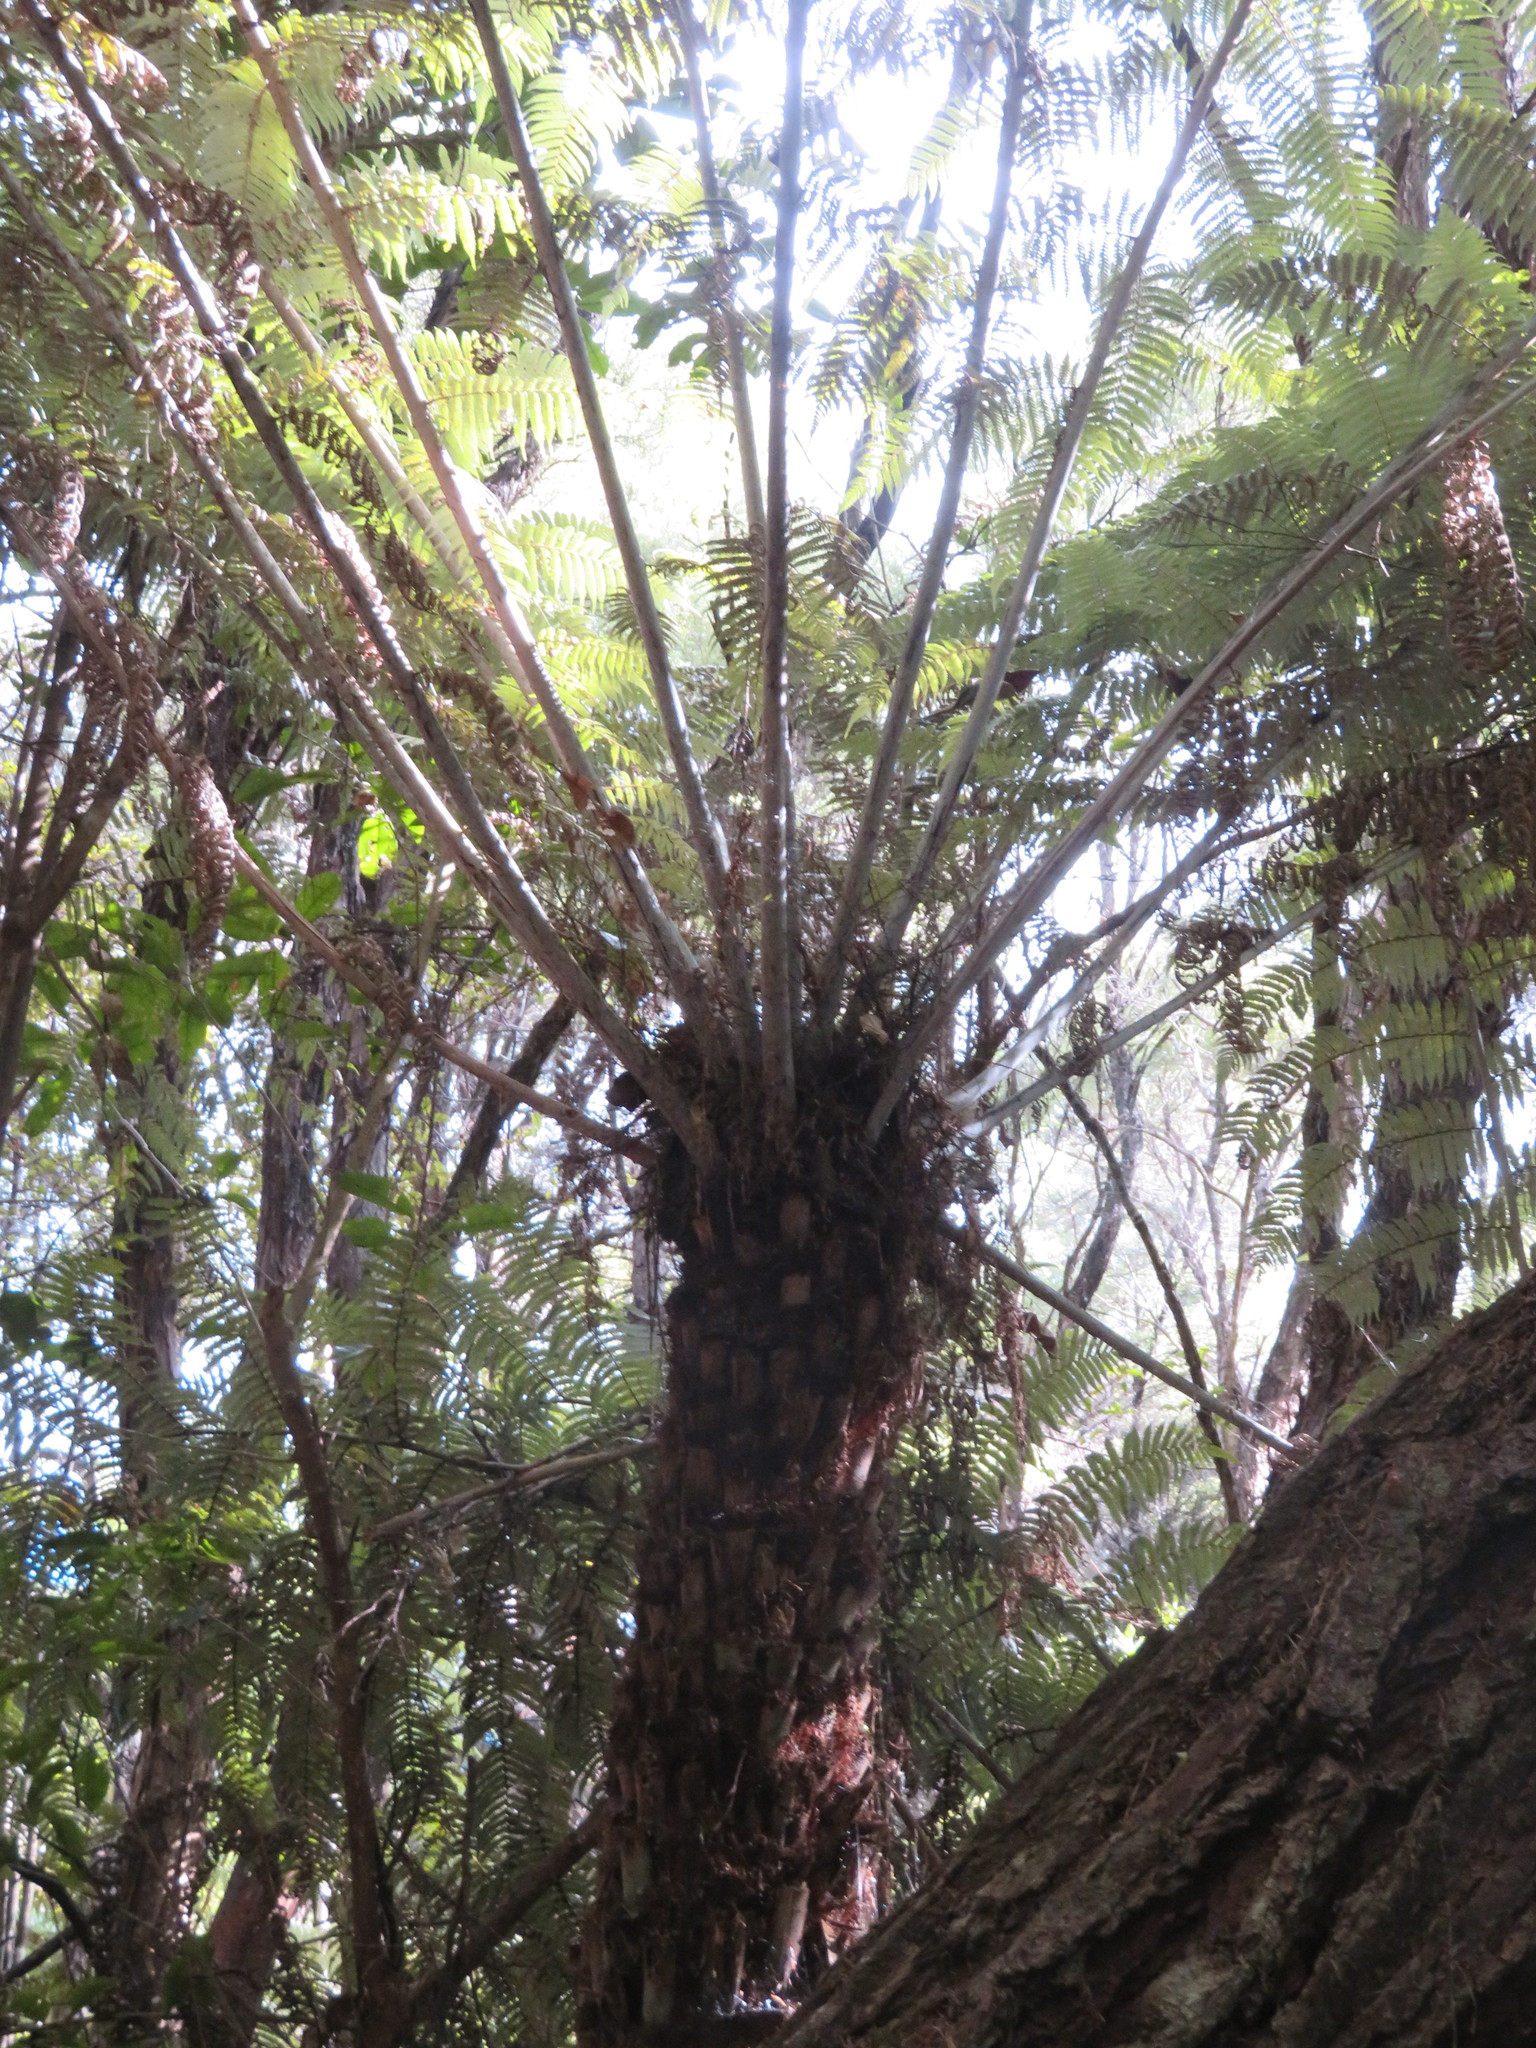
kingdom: Plantae
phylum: Tracheophyta
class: Polypodiopsida
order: Cyatheales
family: Cyatheaceae
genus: Alsophila
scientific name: Alsophila dealbata
